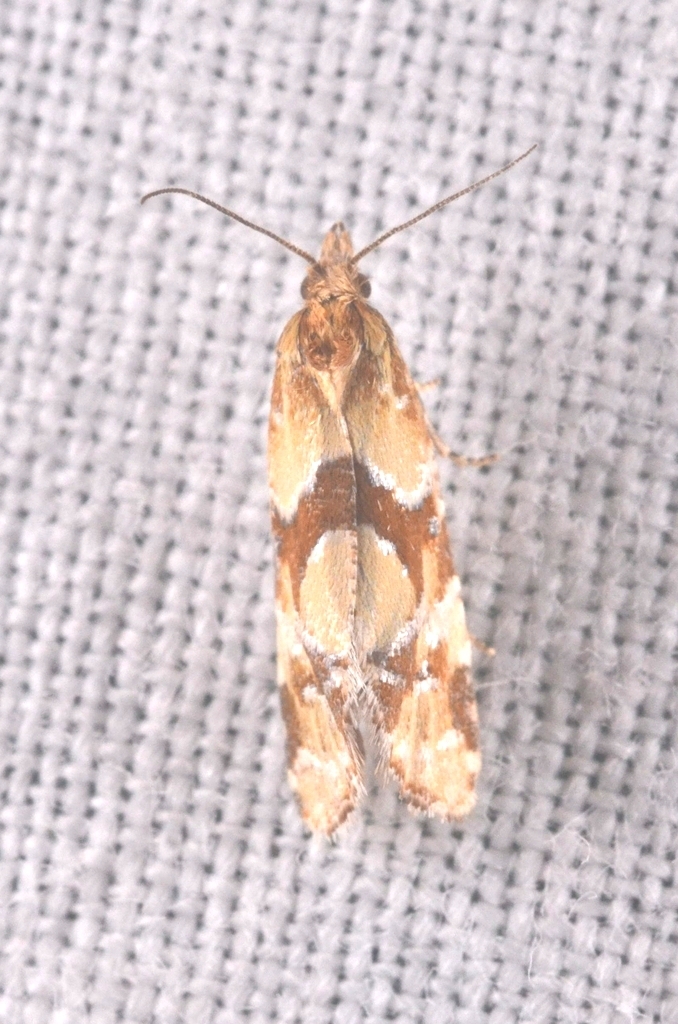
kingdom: Animalia
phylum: Arthropoda
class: Insecta
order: Lepidoptera
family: Tortricidae
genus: Aethes
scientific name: Aethes hartmanniana
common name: Scabious conch
